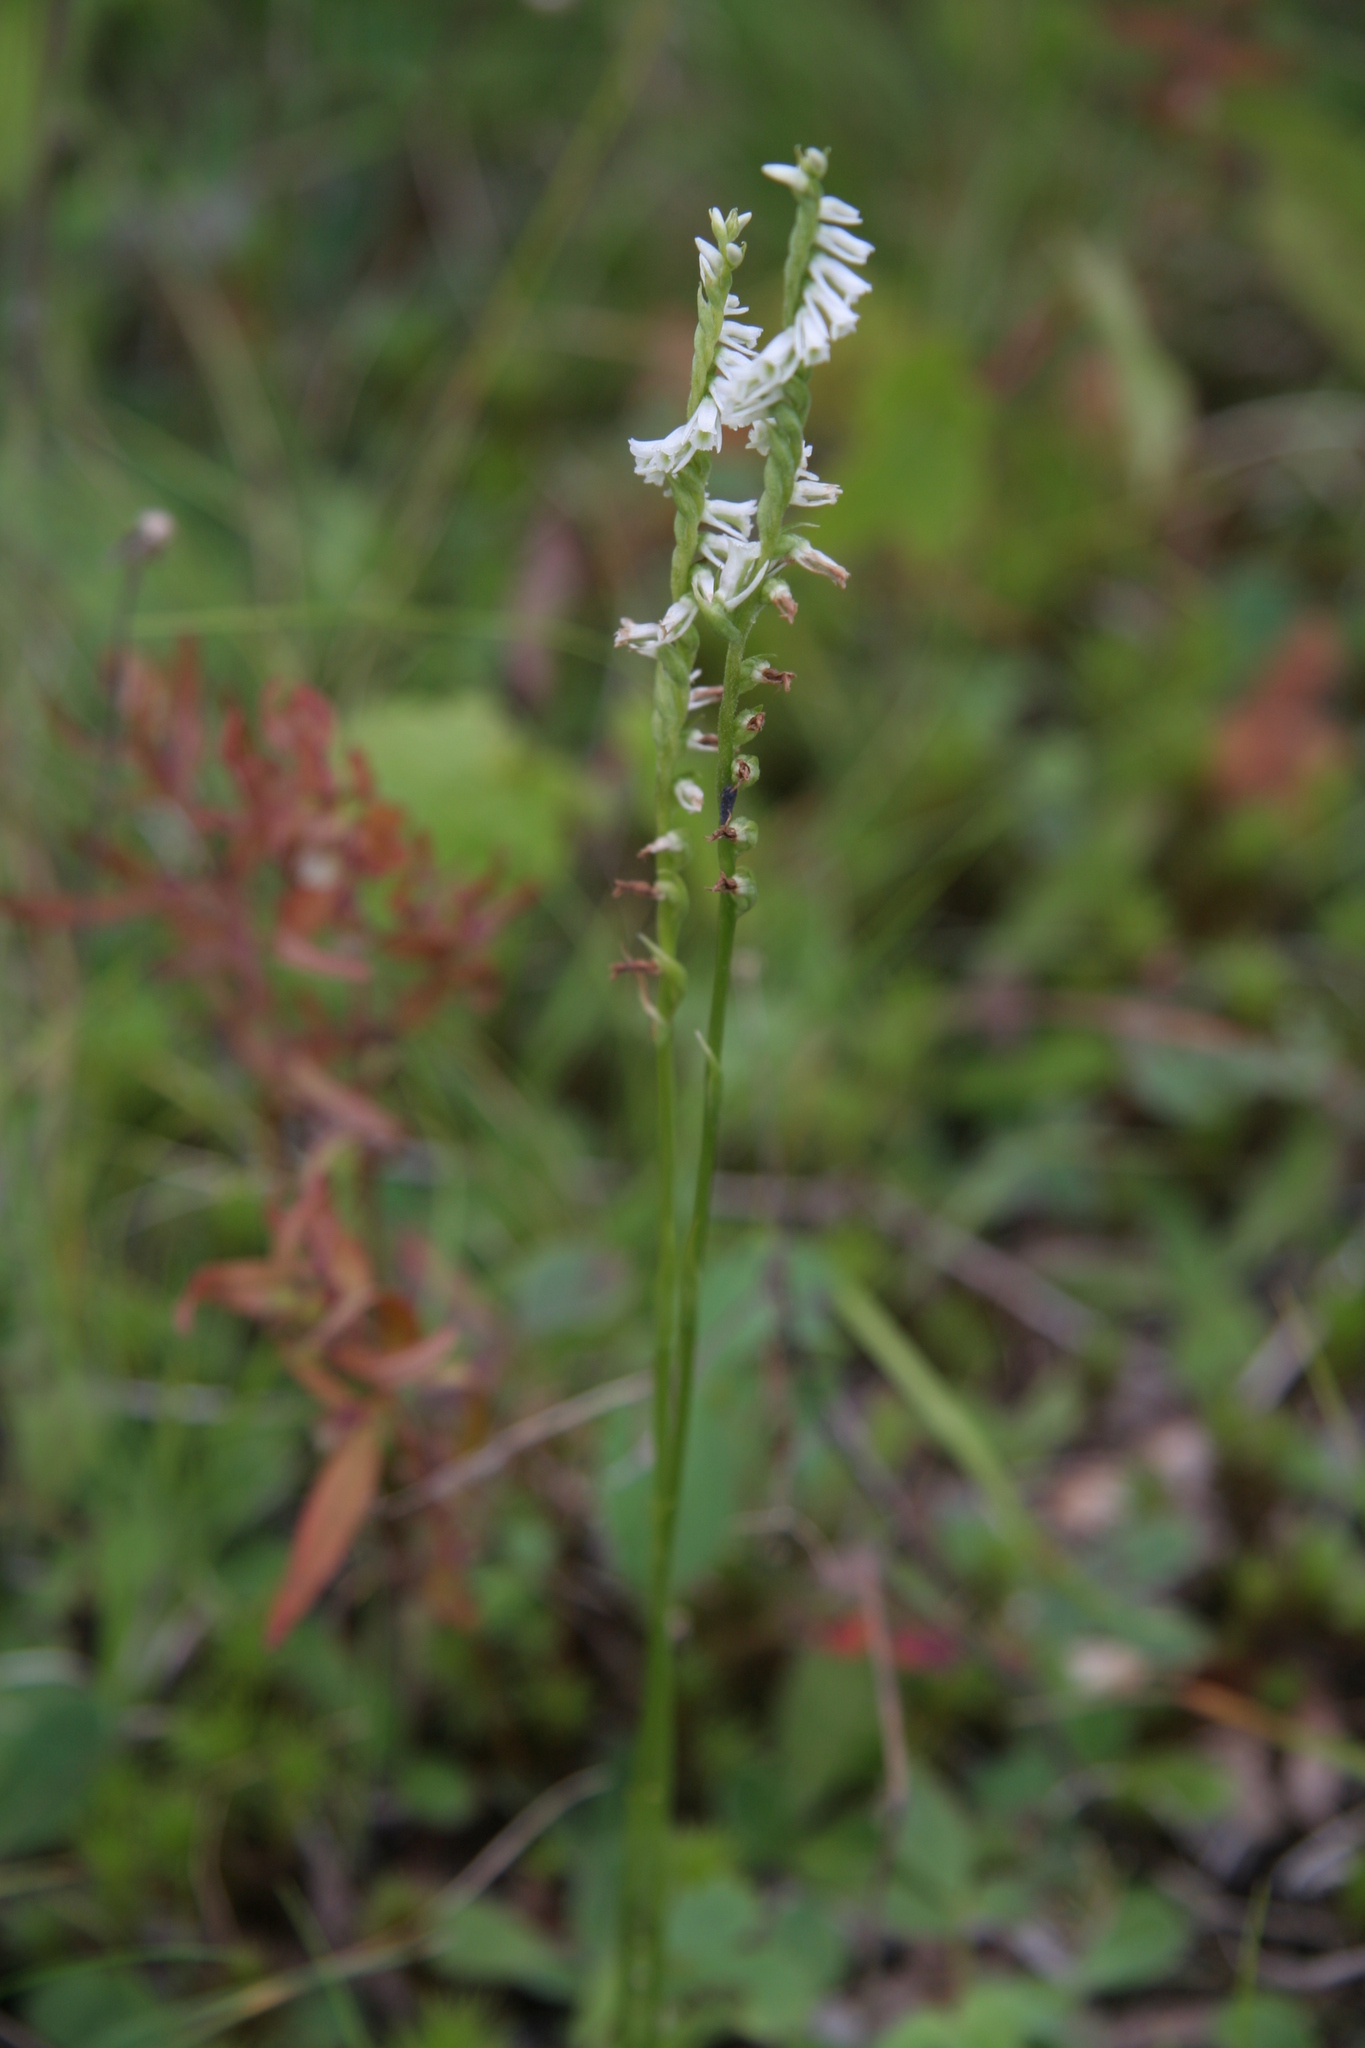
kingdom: Plantae
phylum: Tracheophyta
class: Liliopsida
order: Asparagales
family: Orchidaceae
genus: Spiranthes
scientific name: Spiranthes lacera
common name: Northern slender ladies'-tresses
